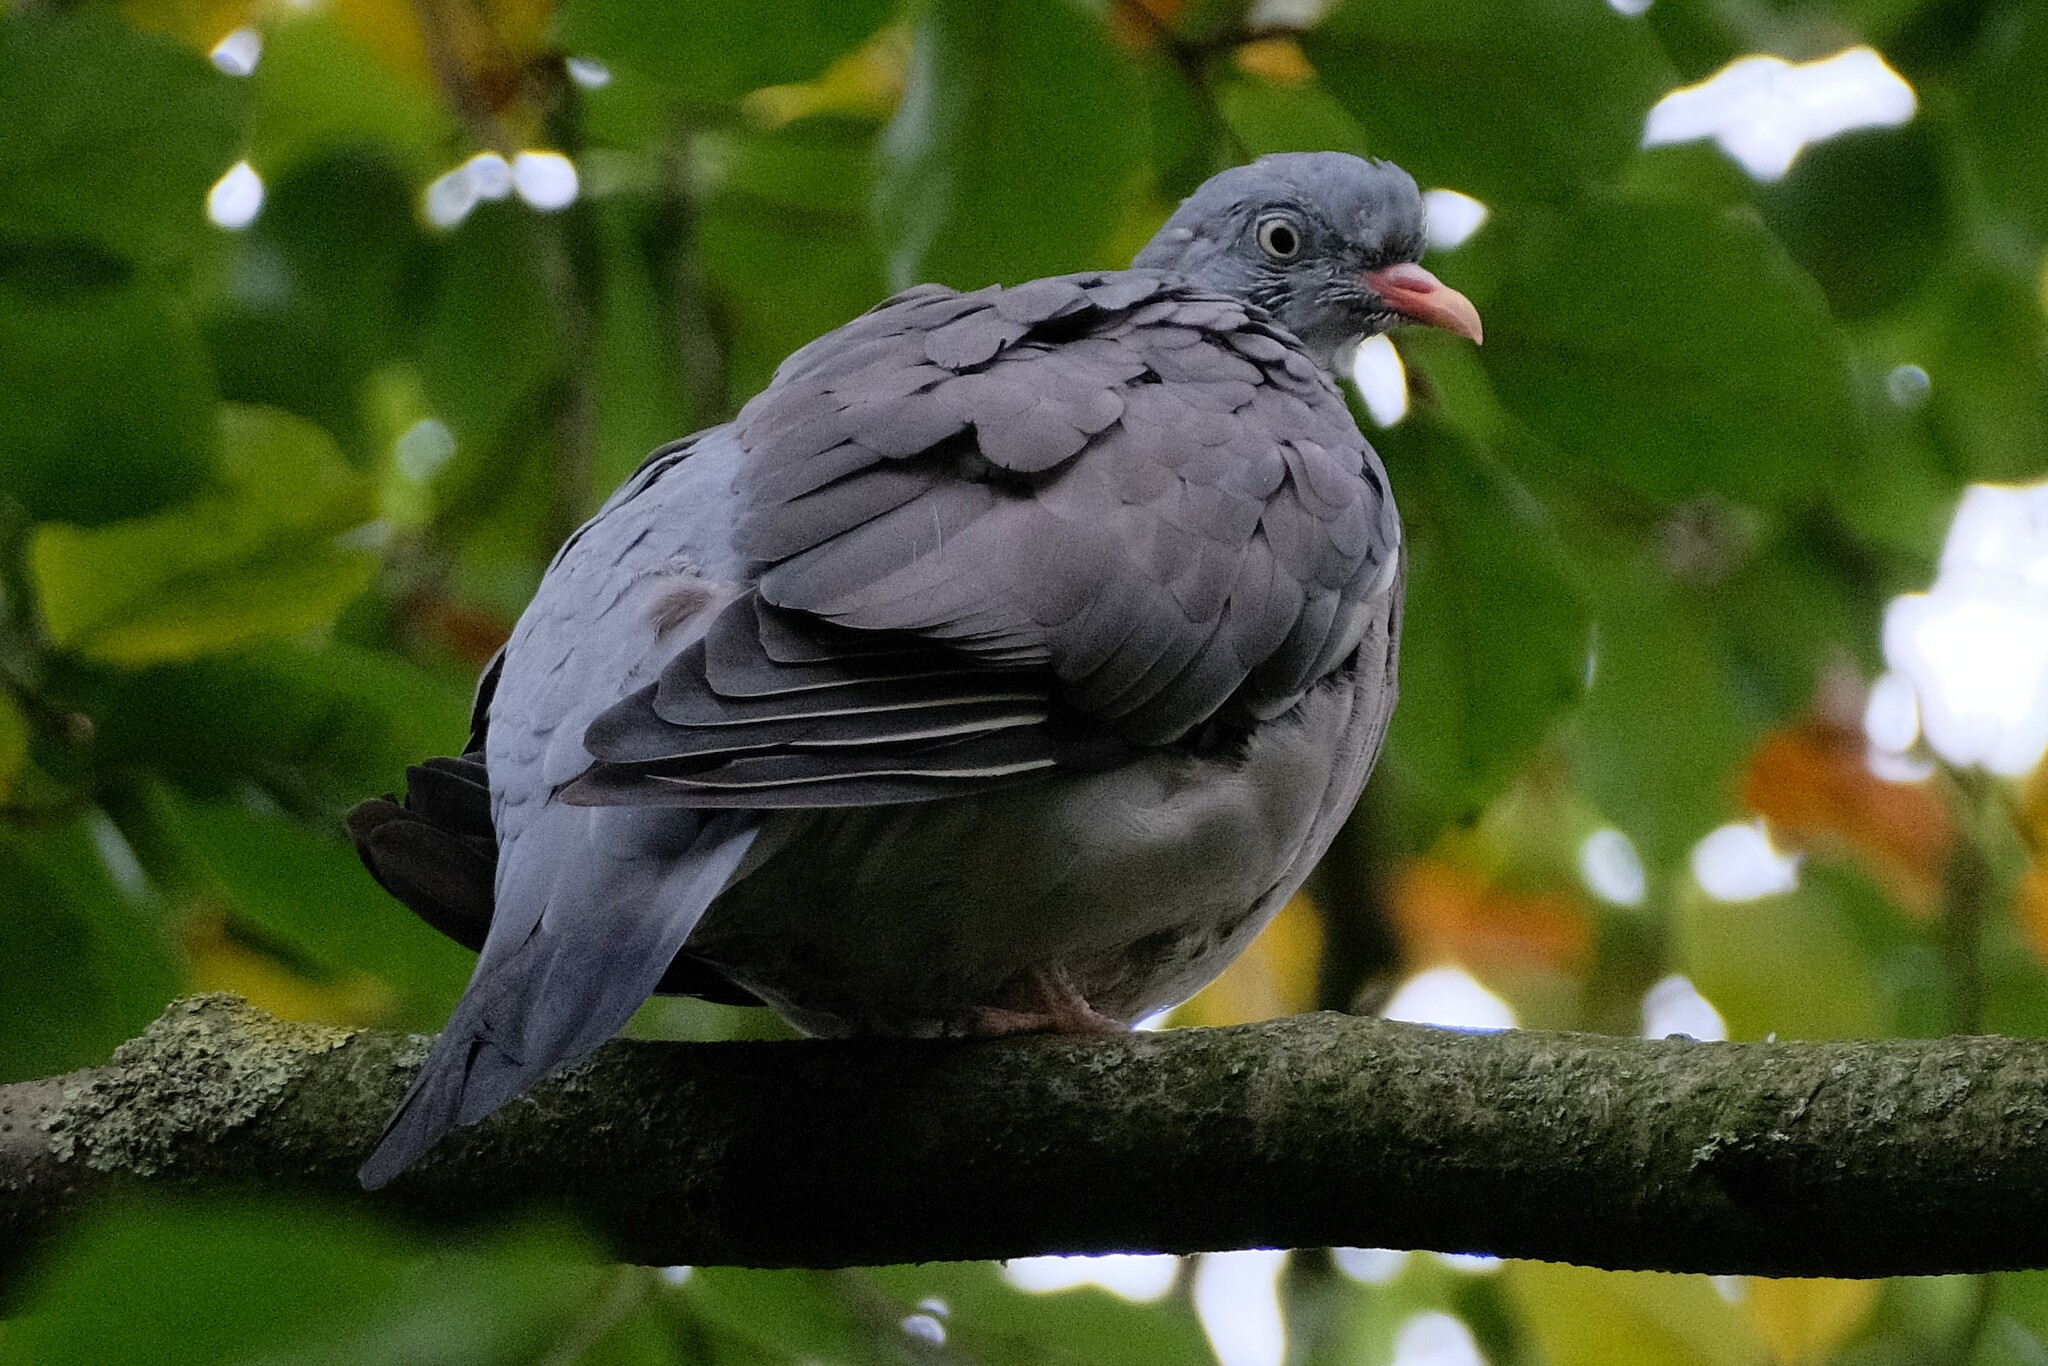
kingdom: Animalia
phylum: Chordata
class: Aves
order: Columbiformes
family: Columbidae
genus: Columba
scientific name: Columba palumbus
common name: Common wood pigeon
